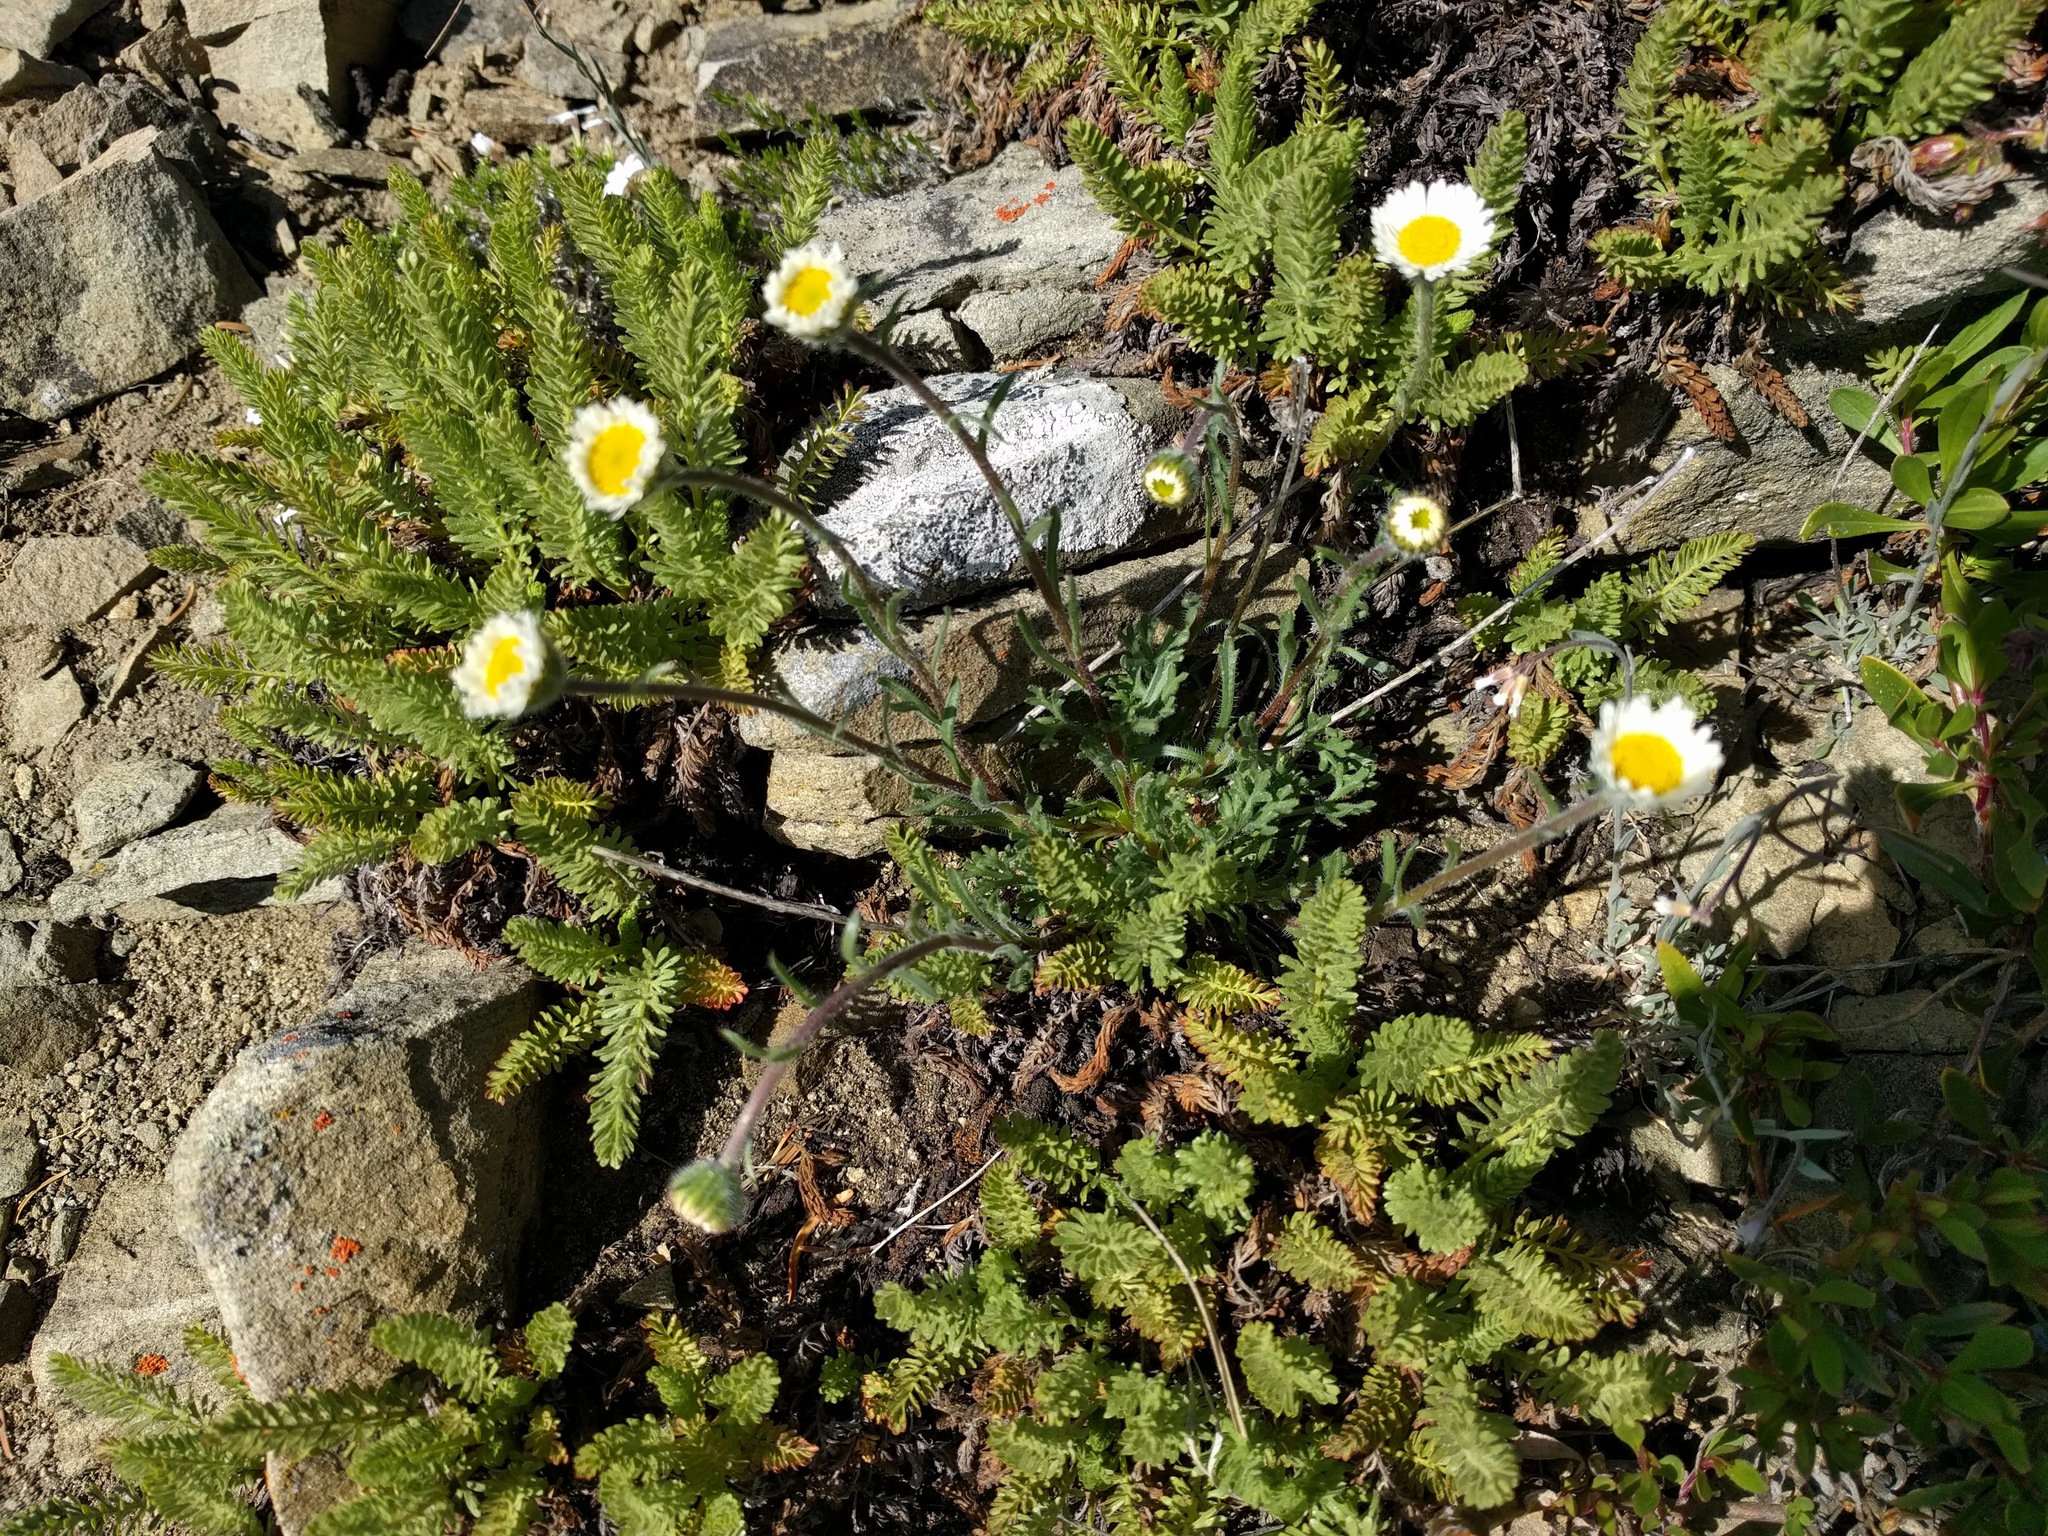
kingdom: Plantae
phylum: Tracheophyta
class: Magnoliopsida
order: Asterales
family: Asteraceae
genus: Erigeron
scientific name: Erigeron poliospermus
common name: Cushion fleabane
